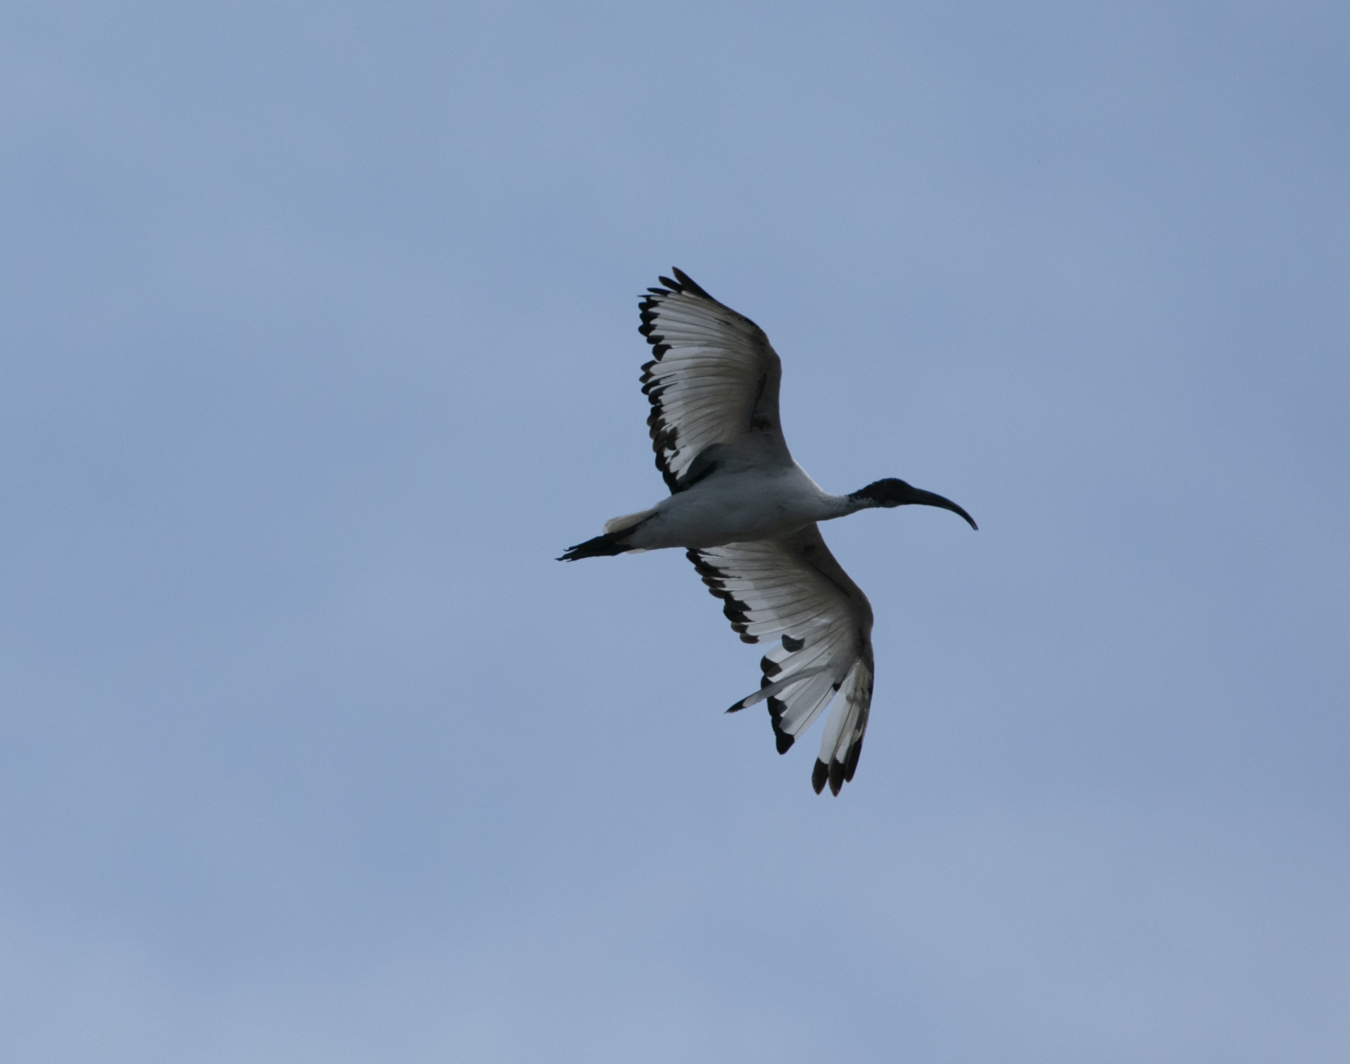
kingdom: Animalia
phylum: Chordata
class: Aves
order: Pelecaniformes
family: Threskiornithidae
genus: Threskiornis
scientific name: Threskiornis aethiopicus
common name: Sacred ibis
